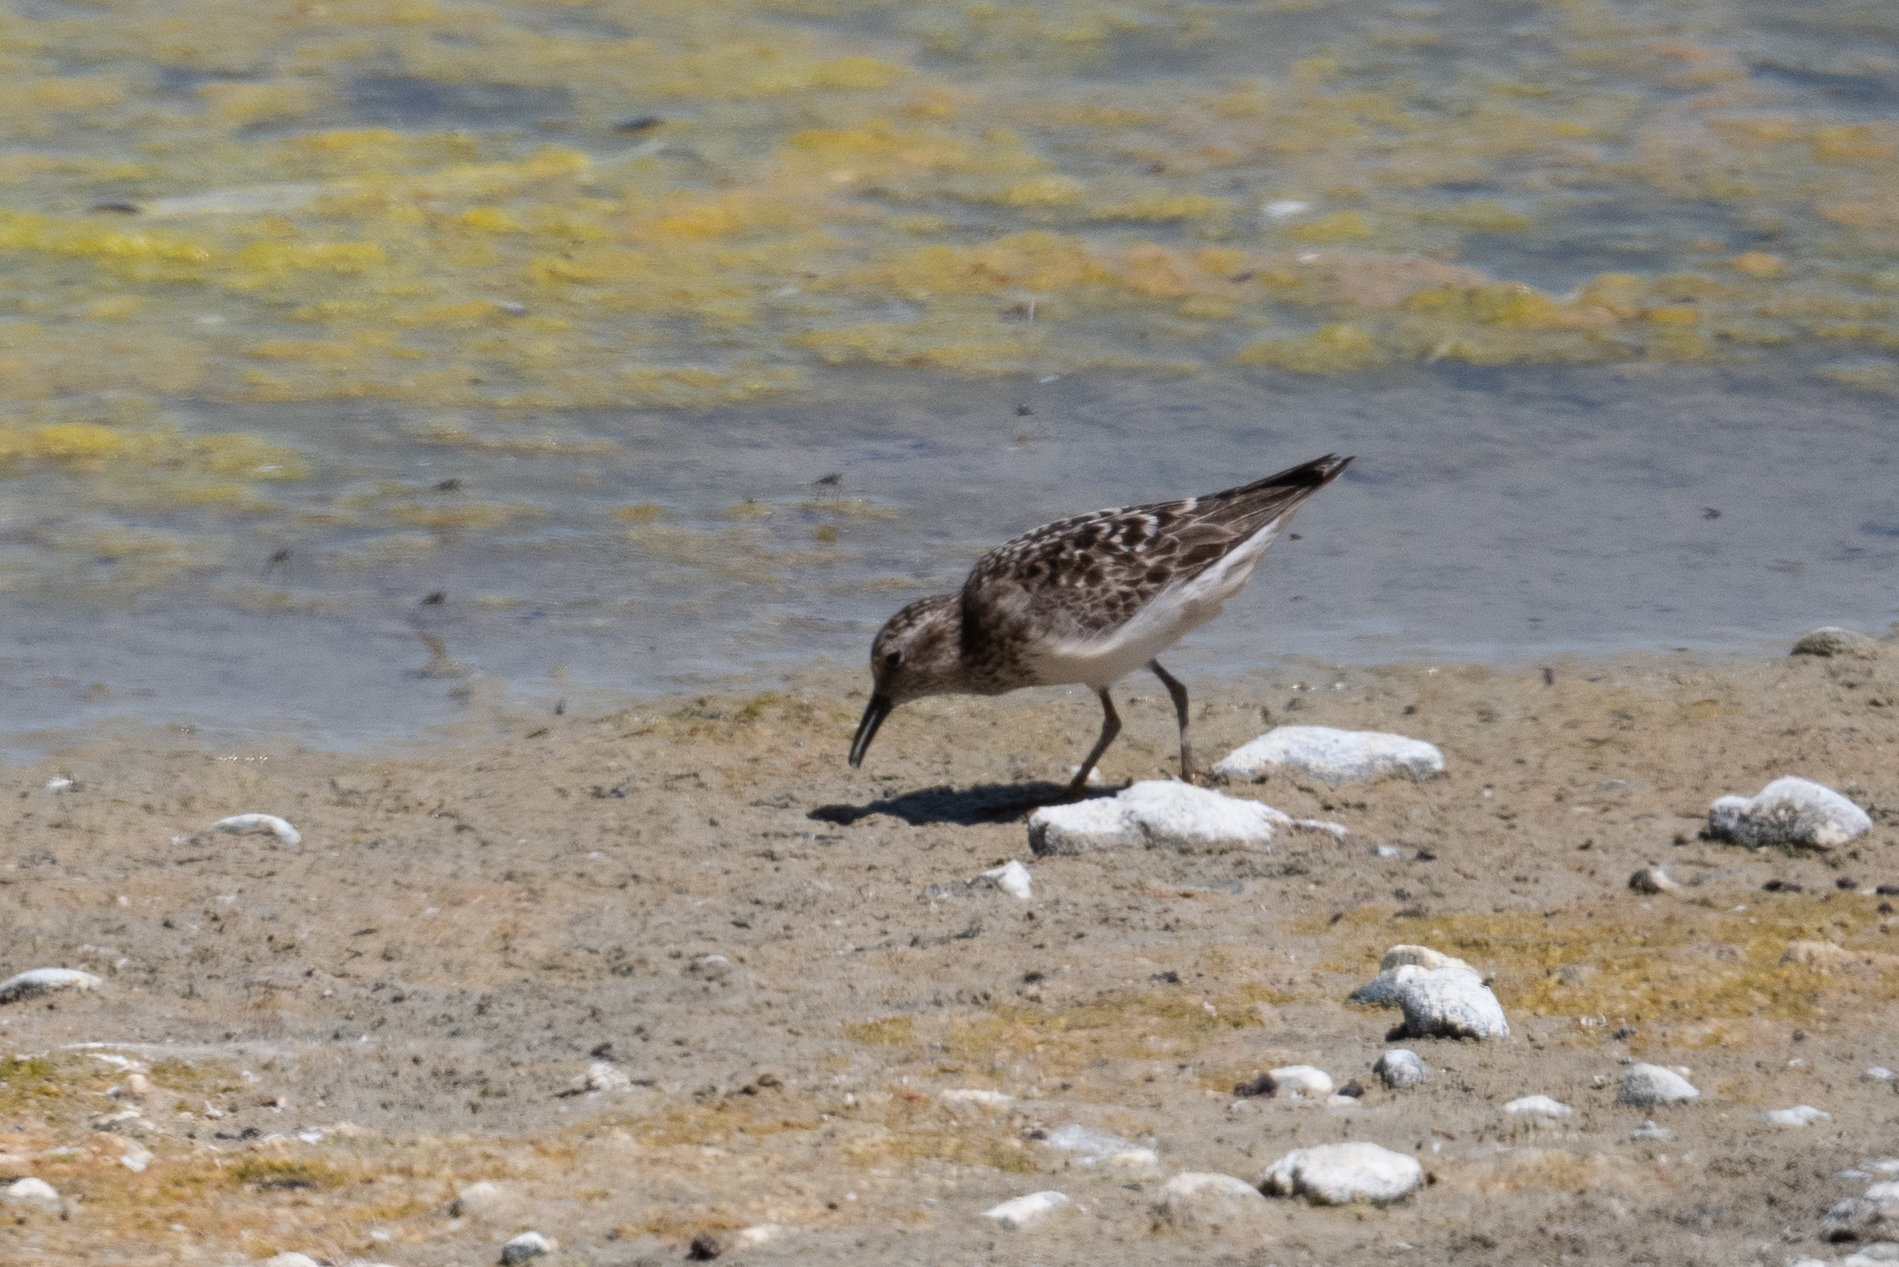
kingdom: Animalia
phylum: Chordata
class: Aves
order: Charadriiformes
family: Scolopacidae
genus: Calidris
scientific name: Calidris minutilla
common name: Least sandpiper
